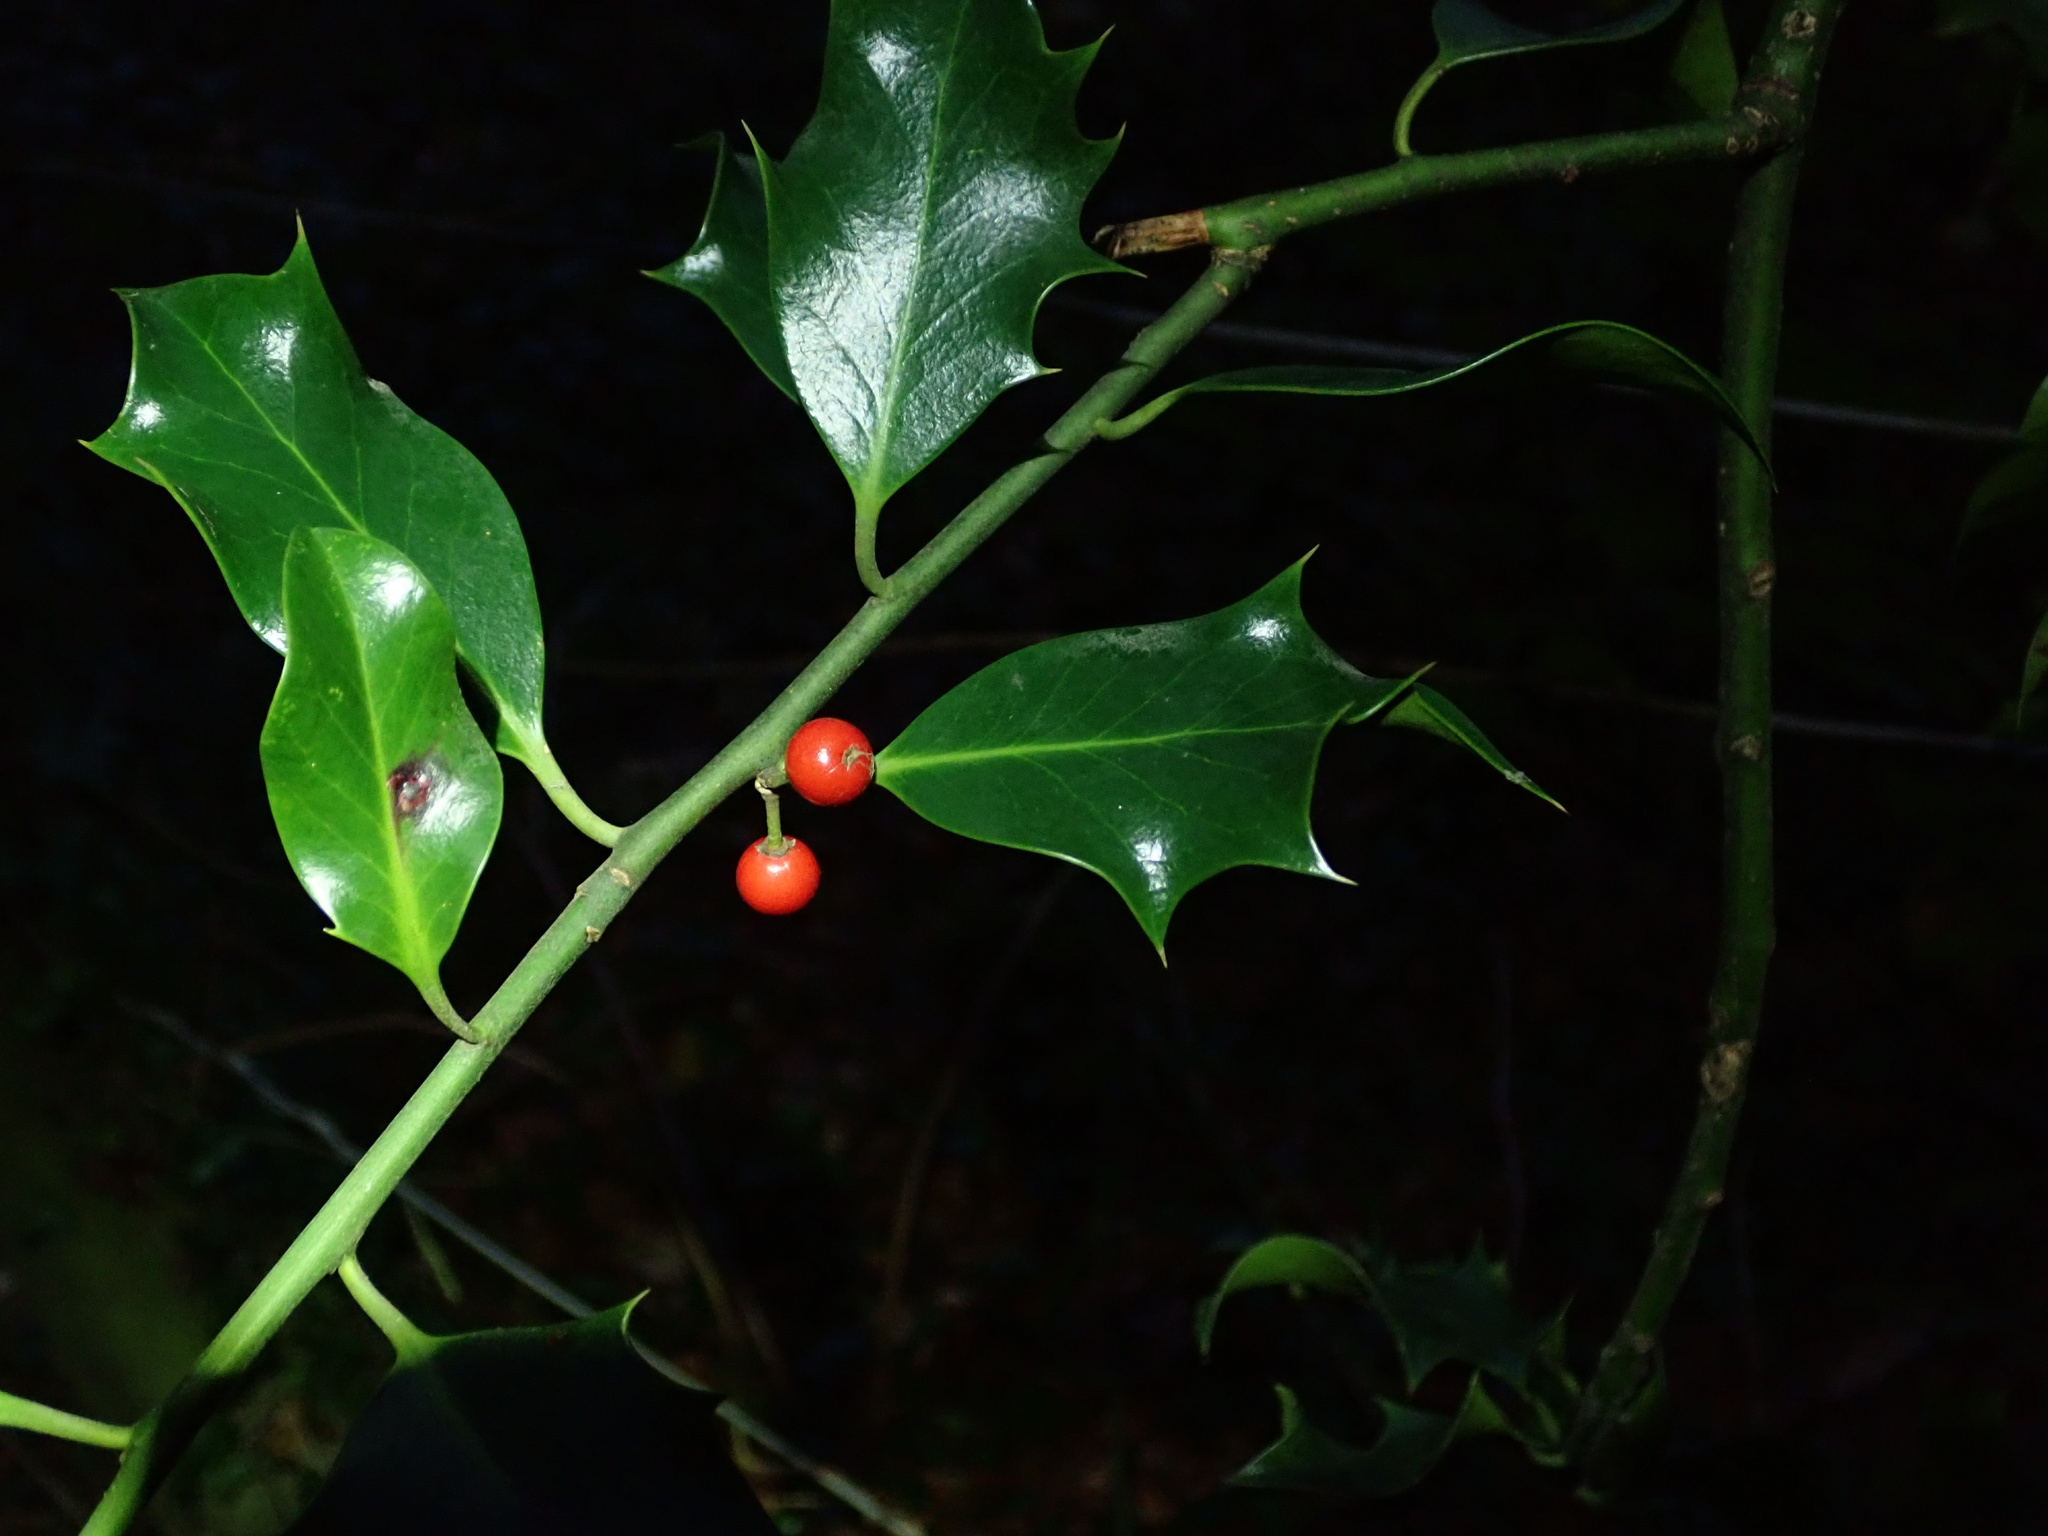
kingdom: Plantae
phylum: Tracheophyta
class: Magnoliopsida
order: Aquifoliales
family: Aquifoliaceae
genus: Ilex
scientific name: Ilex aquifolium
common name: English holly
